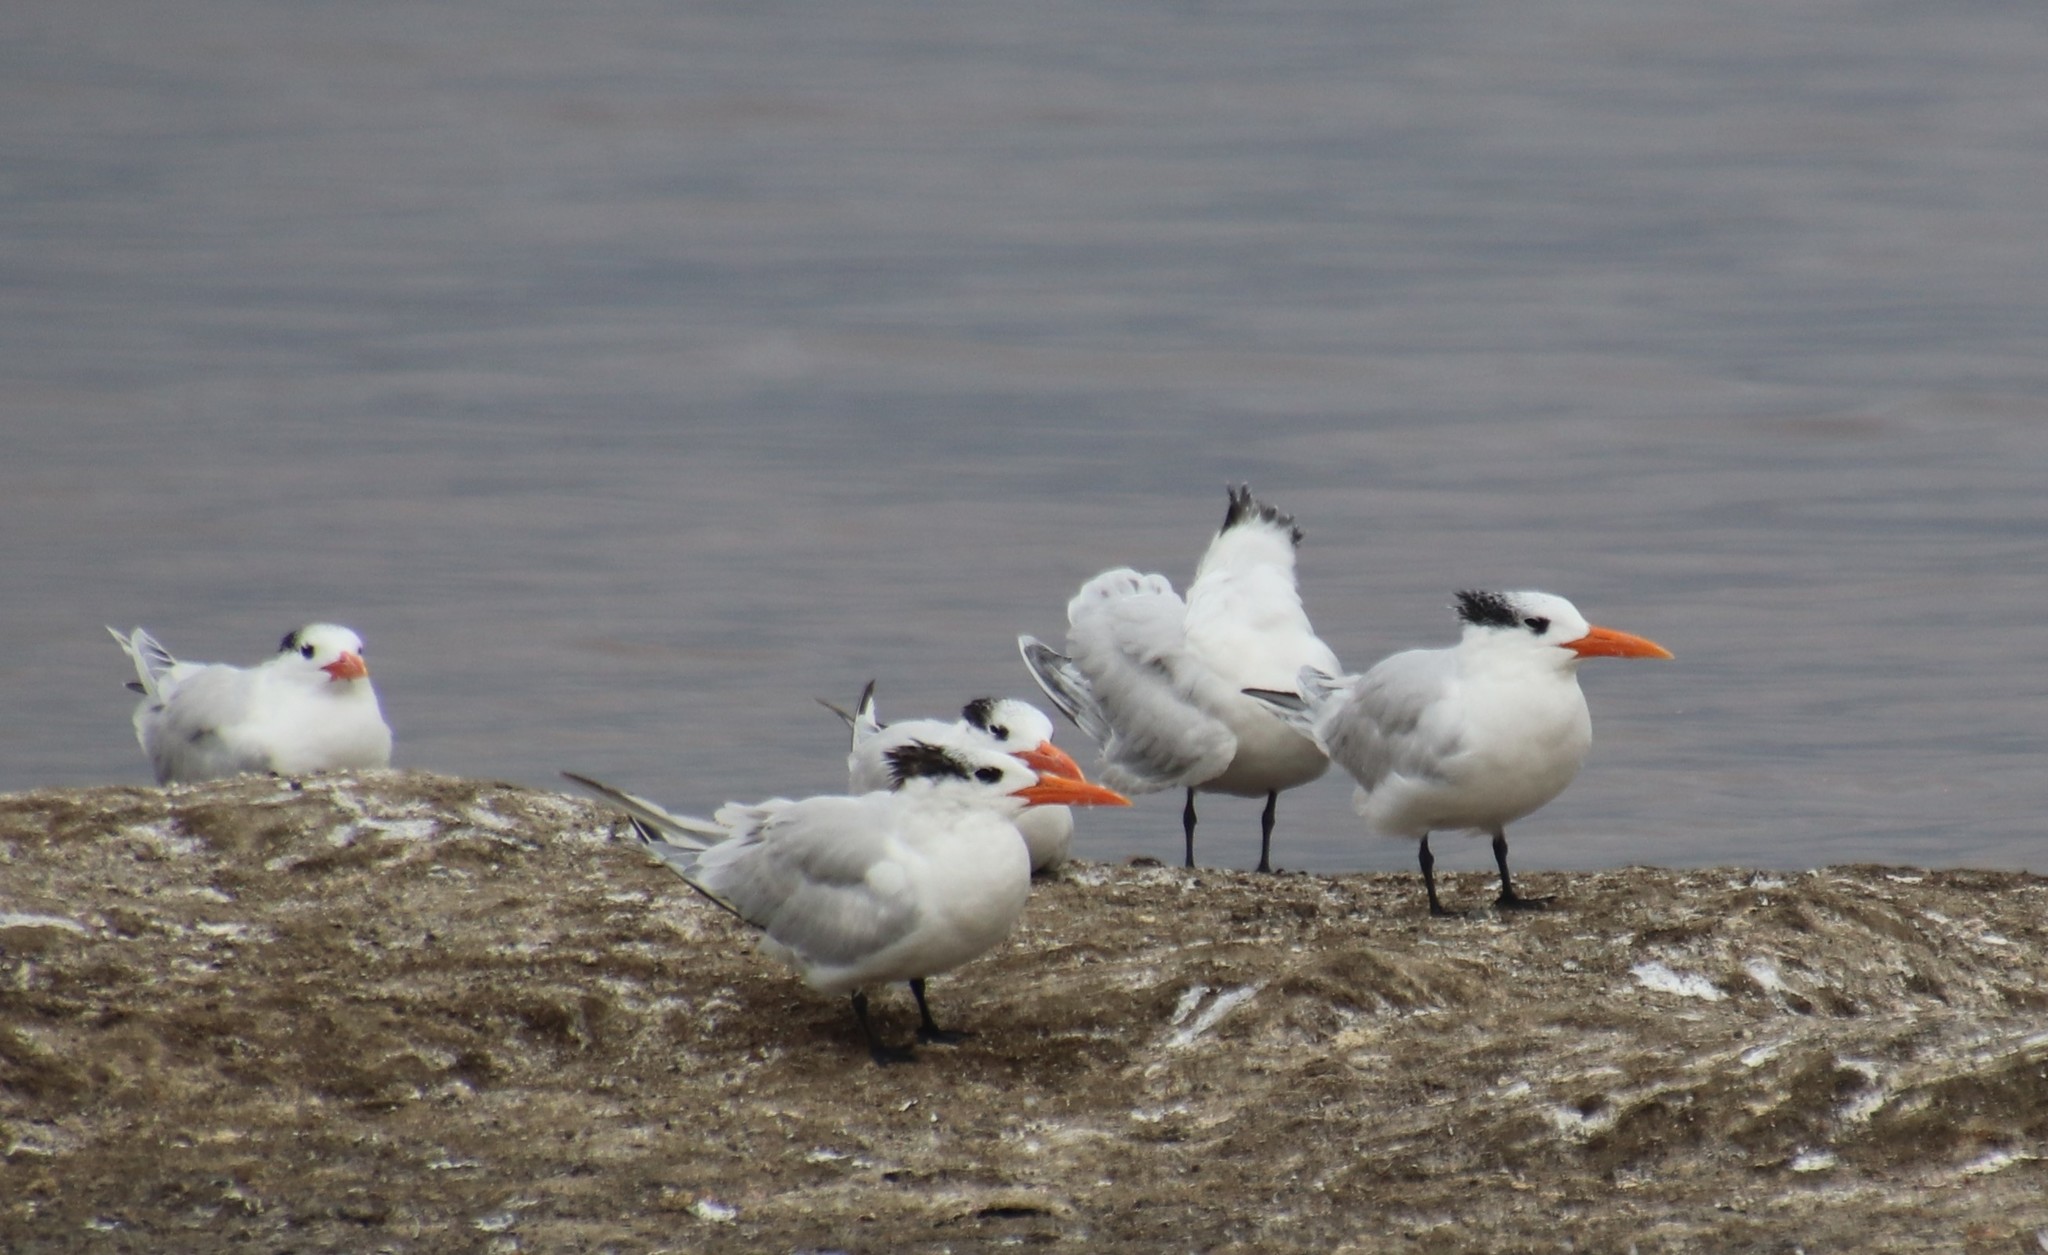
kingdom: Animalia
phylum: Chordata
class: Aves
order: Charadriiformes
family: Laridae
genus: Thalasseus
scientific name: Thalasseus maximus
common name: Royal tern
